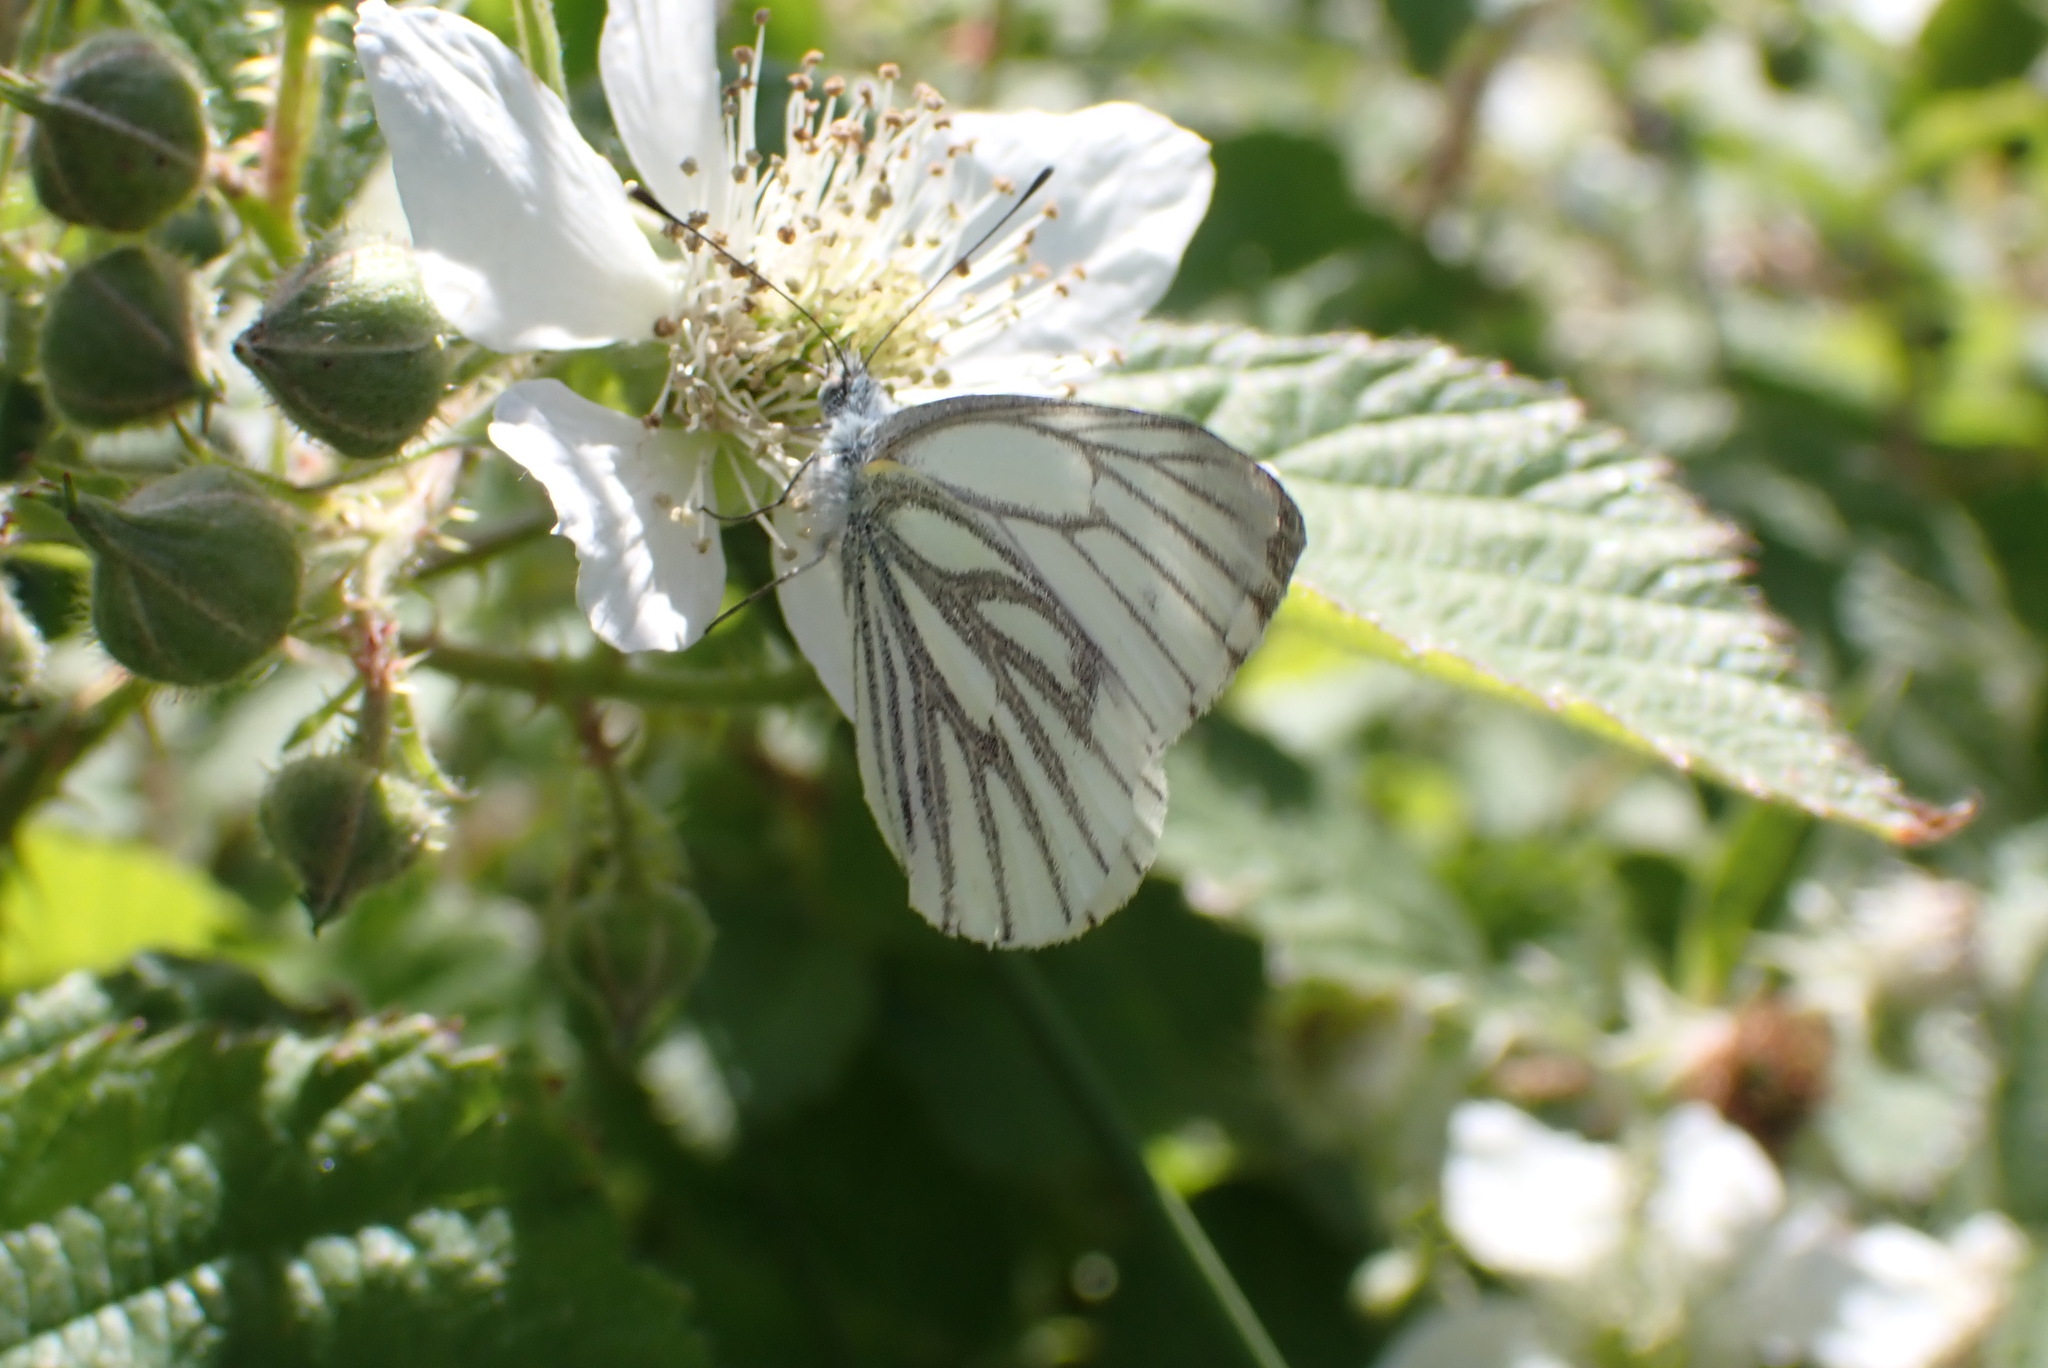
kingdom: Animalia
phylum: Arthropoda
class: Insecta
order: Lepidoptera
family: Pieridae
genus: Pieris
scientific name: Pieris napi
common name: Green-veined white
